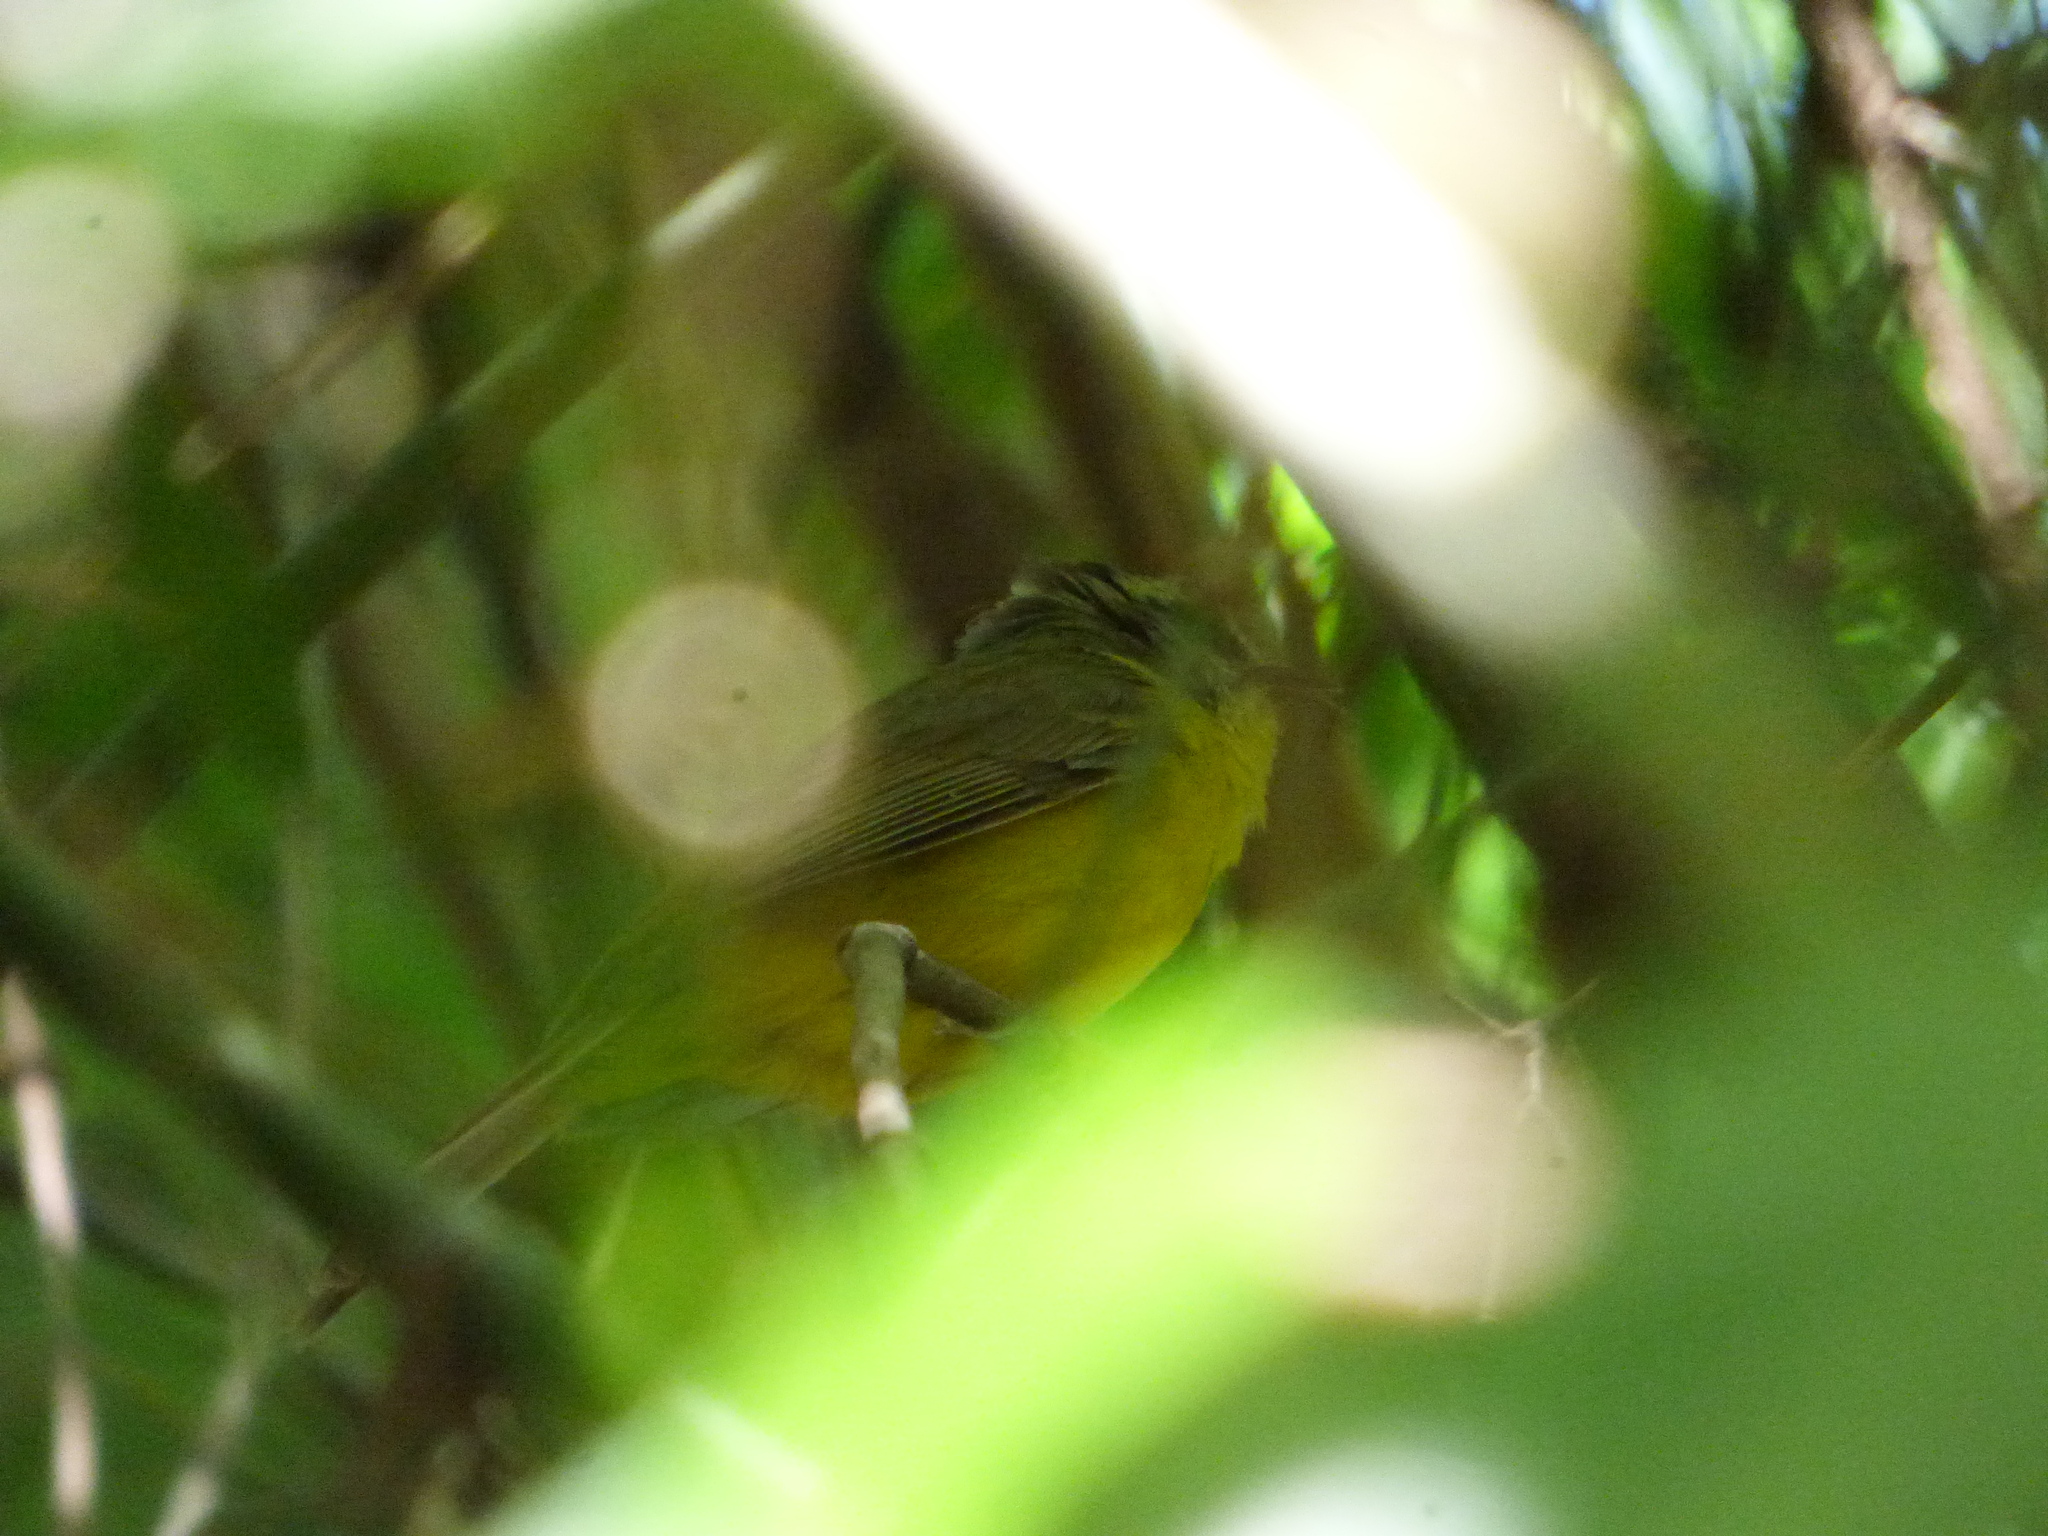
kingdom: Animalia
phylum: Chordata
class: Aves
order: Passeriformes
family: Parulidae
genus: Basileuterus
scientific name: Basileuterus culicivorus
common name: Golden-crowned warbler
